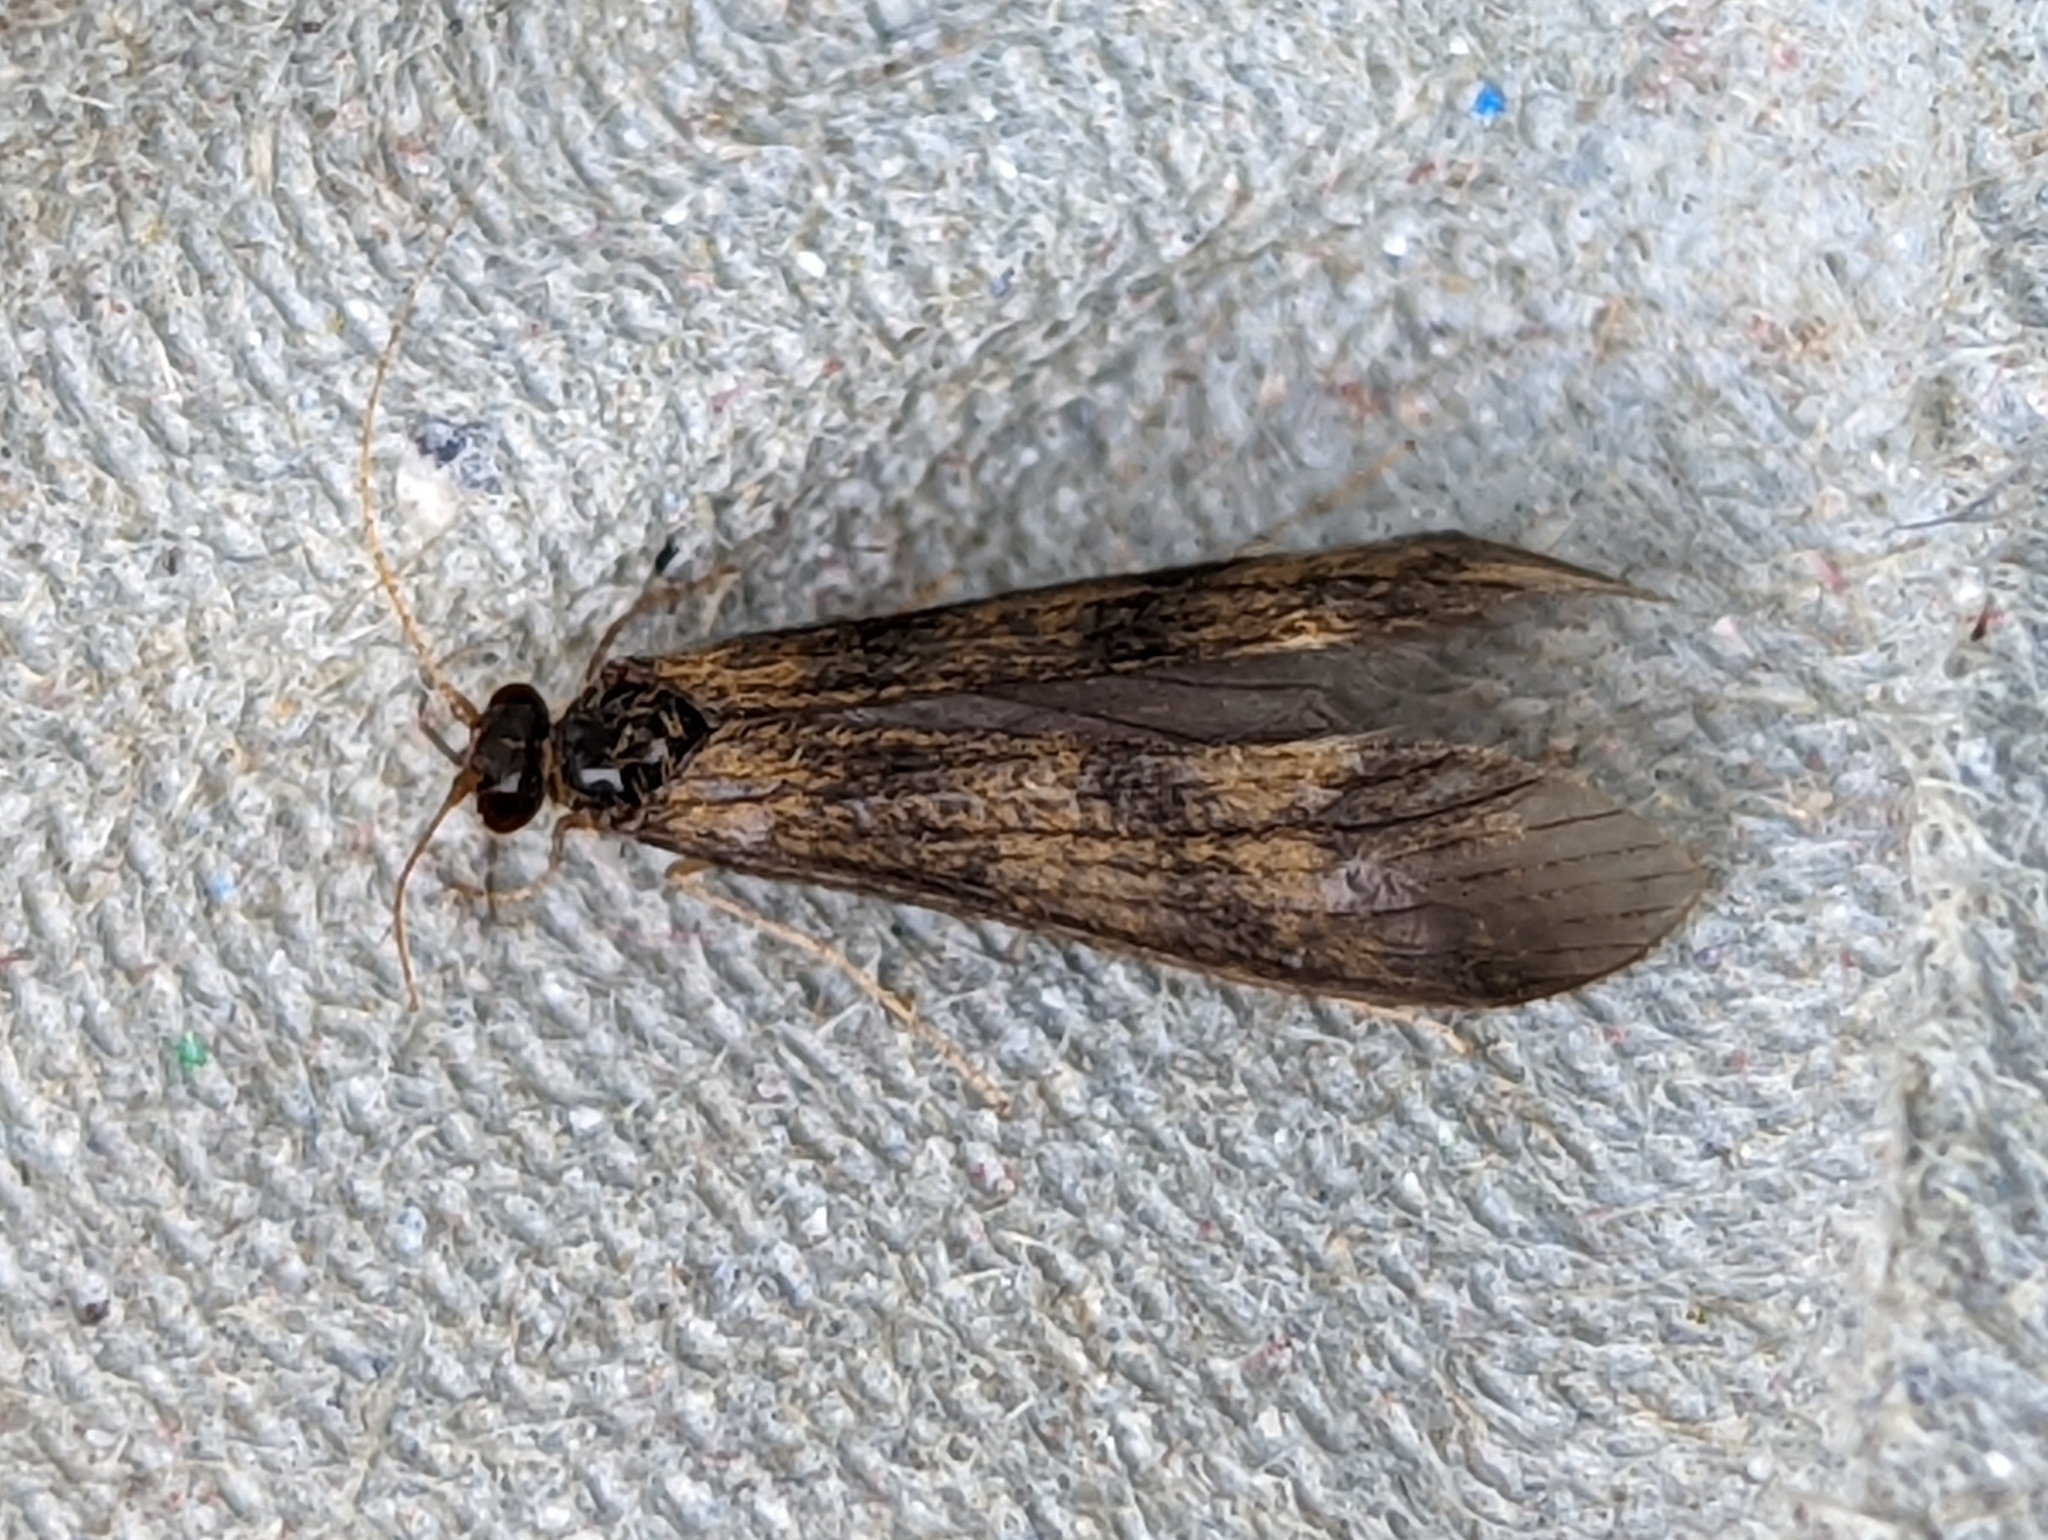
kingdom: Animalia
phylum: Arthropoda
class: Insecta
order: Trichoptera
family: Leptoceridae
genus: Mystacides
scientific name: Mystacides longicornis
